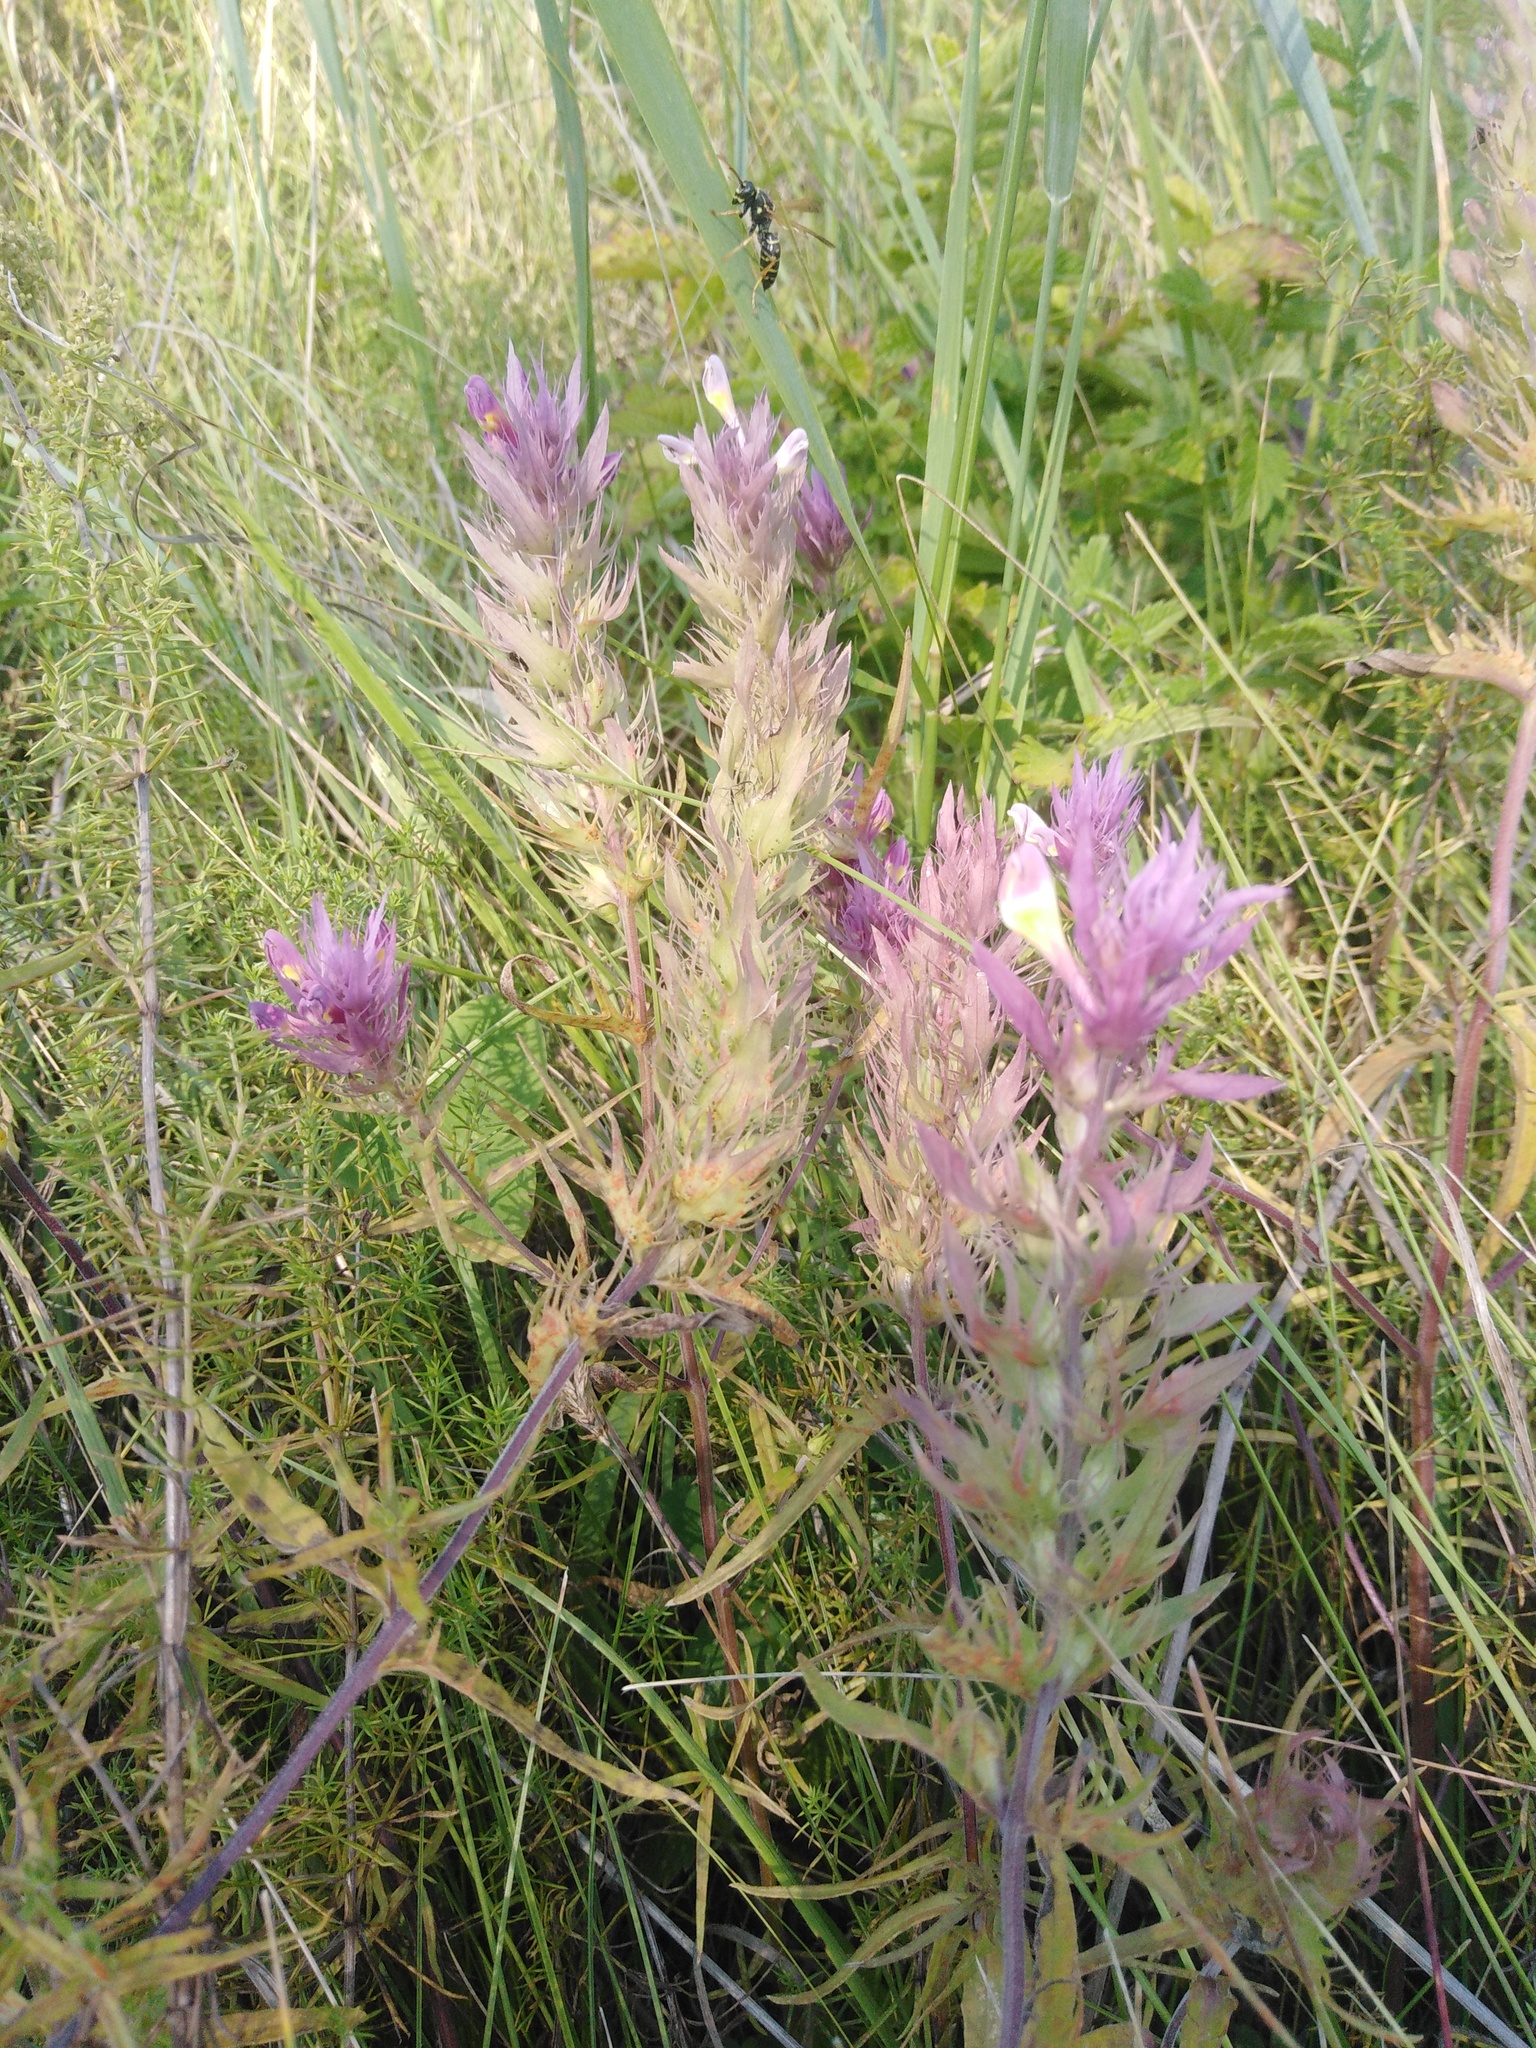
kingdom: Plantae
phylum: Tracheophyta
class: Magnoliopsida
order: Lamiales
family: Orobanchaceae
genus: Melampyrum
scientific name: Melampyrum arvense
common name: Field cow-wheat
